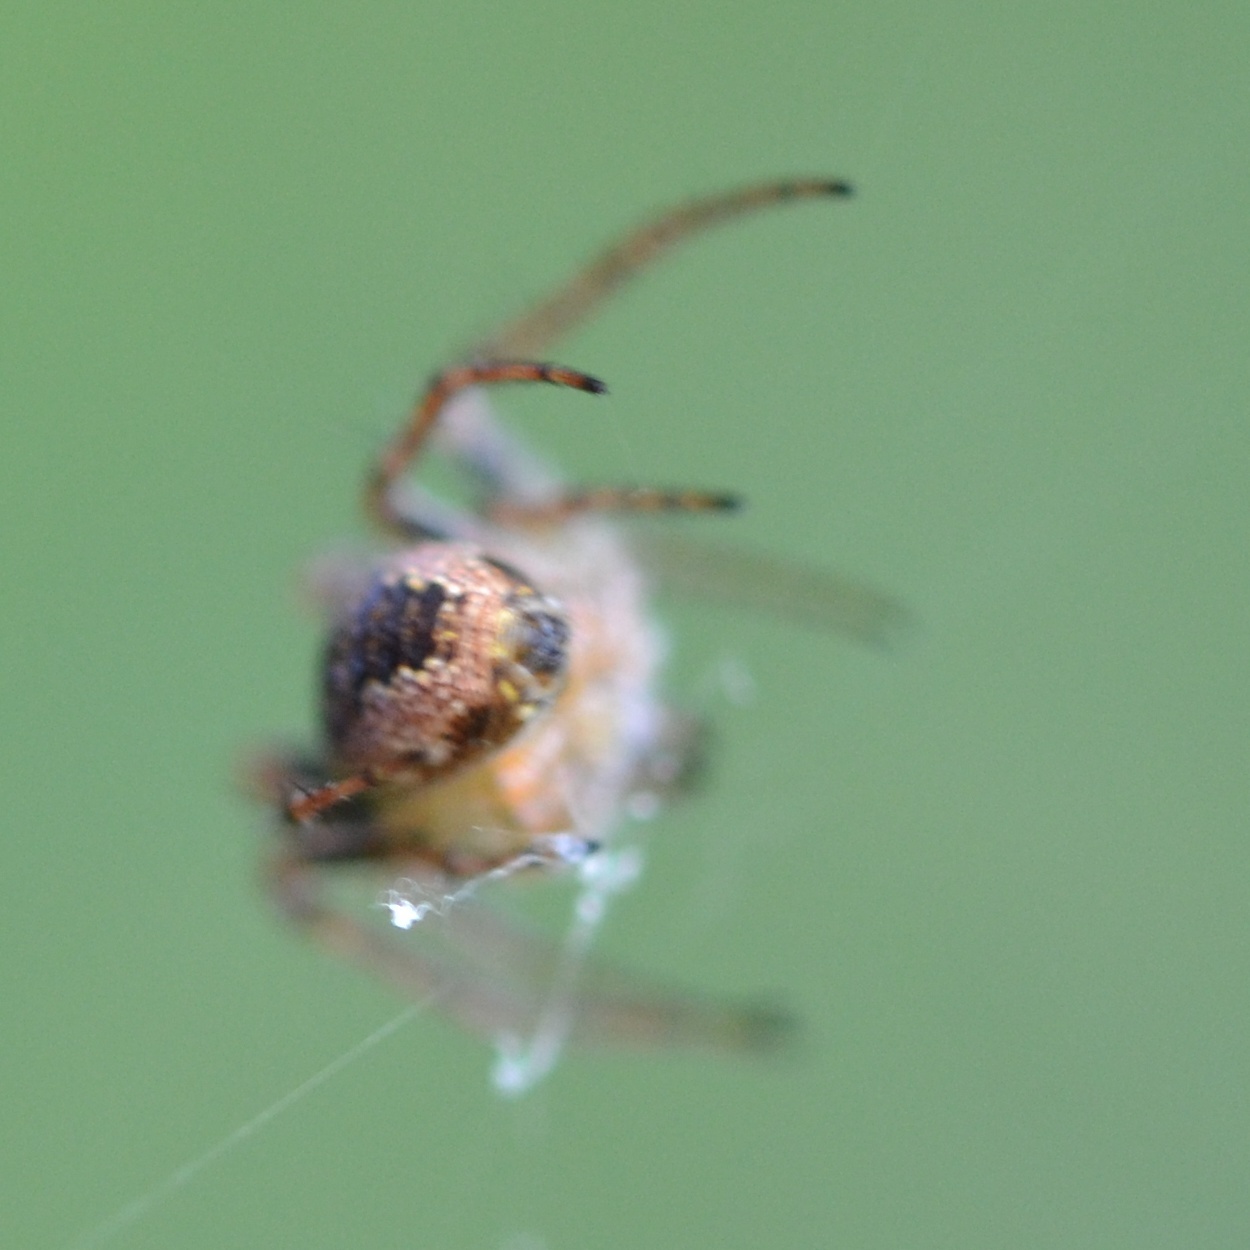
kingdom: Animalia
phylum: Arthropoda
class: Arachnida
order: Araneae
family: Araneidae
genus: Zilla
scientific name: Zilla diodia
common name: Zilla diodia
